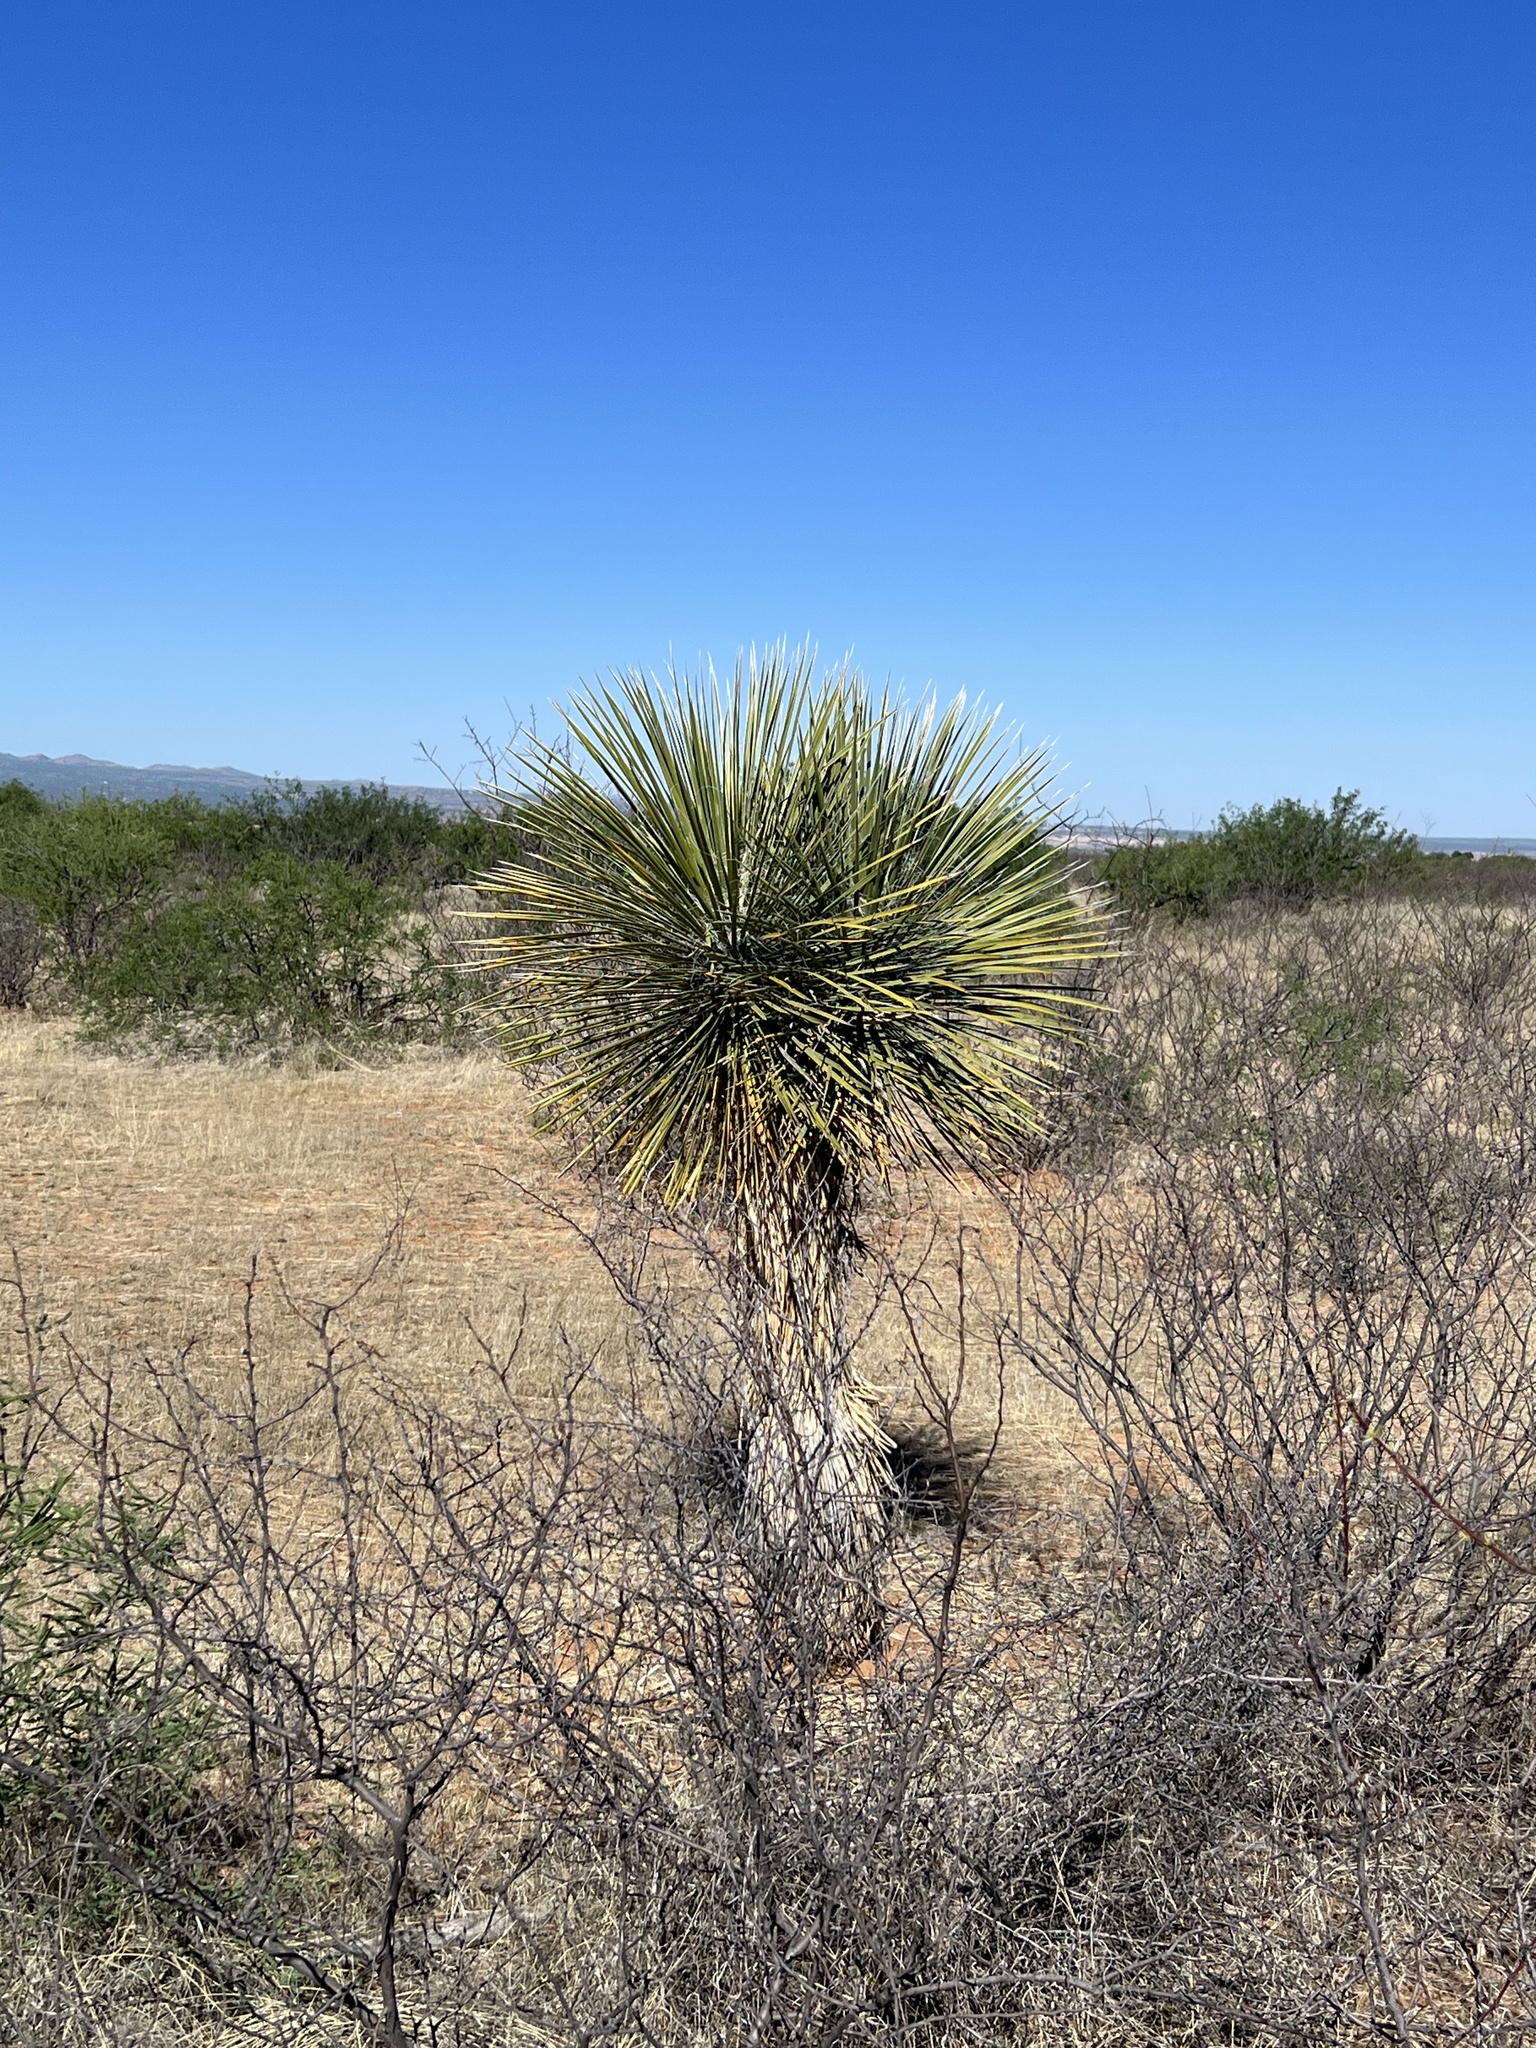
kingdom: Plantae
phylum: Tracheophyta
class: Liliopsida
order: Asparagales
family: Asparagaceae
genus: Yucca
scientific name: Yucca elata
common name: Palmella
